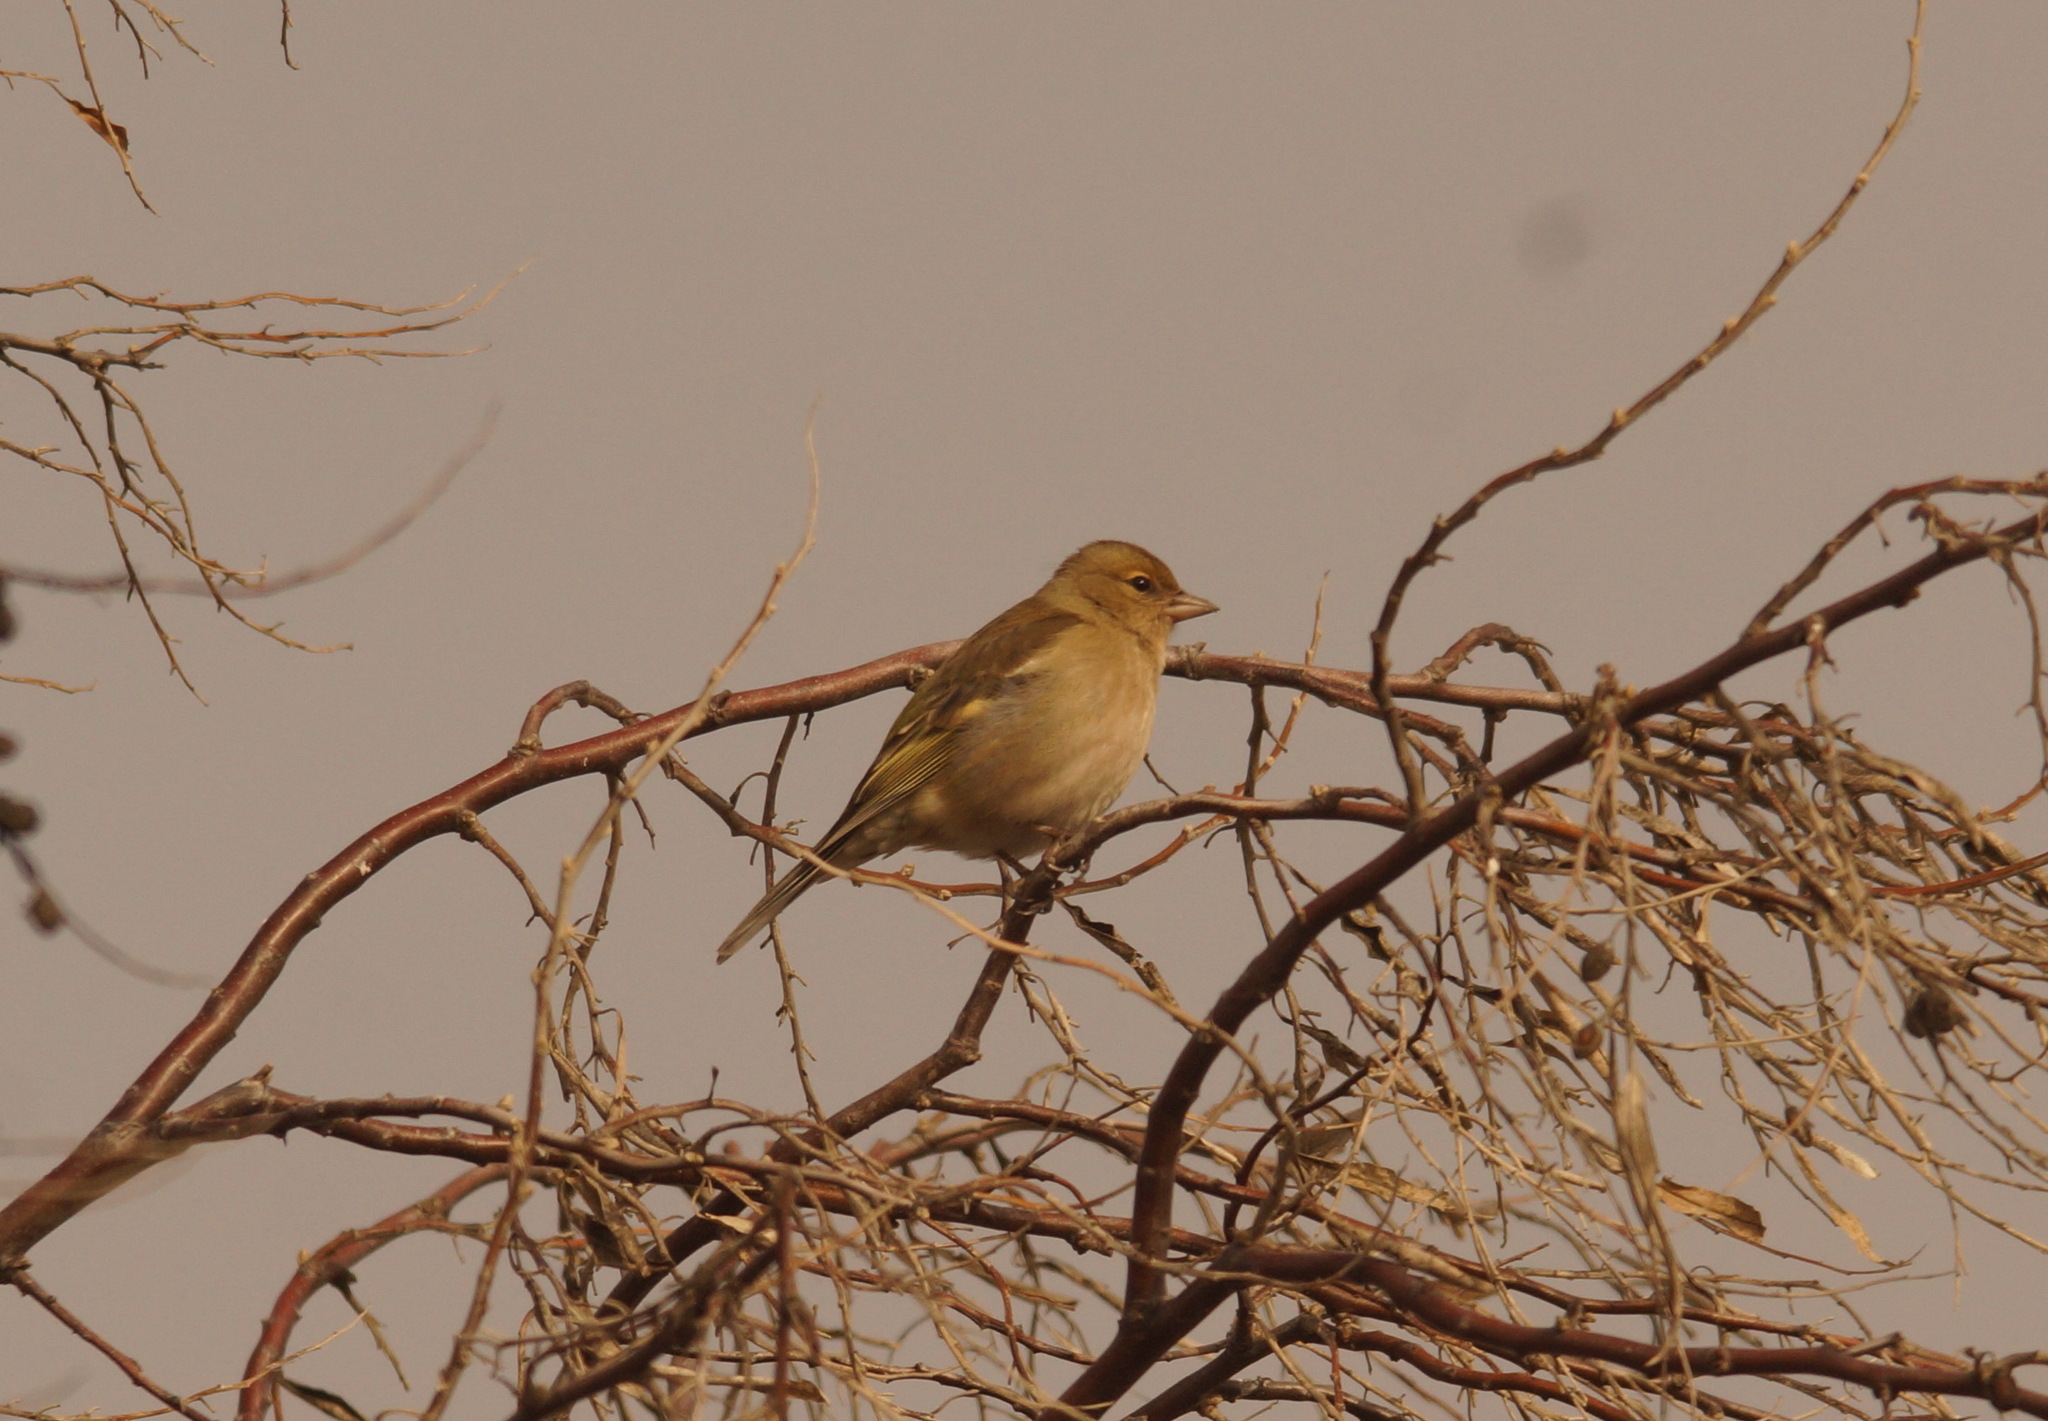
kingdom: Animalia
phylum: Chordata
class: Aves
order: Passeriformes
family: Fringillidae
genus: Fringilla
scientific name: Fringilla coelebs
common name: Common chaffinch
